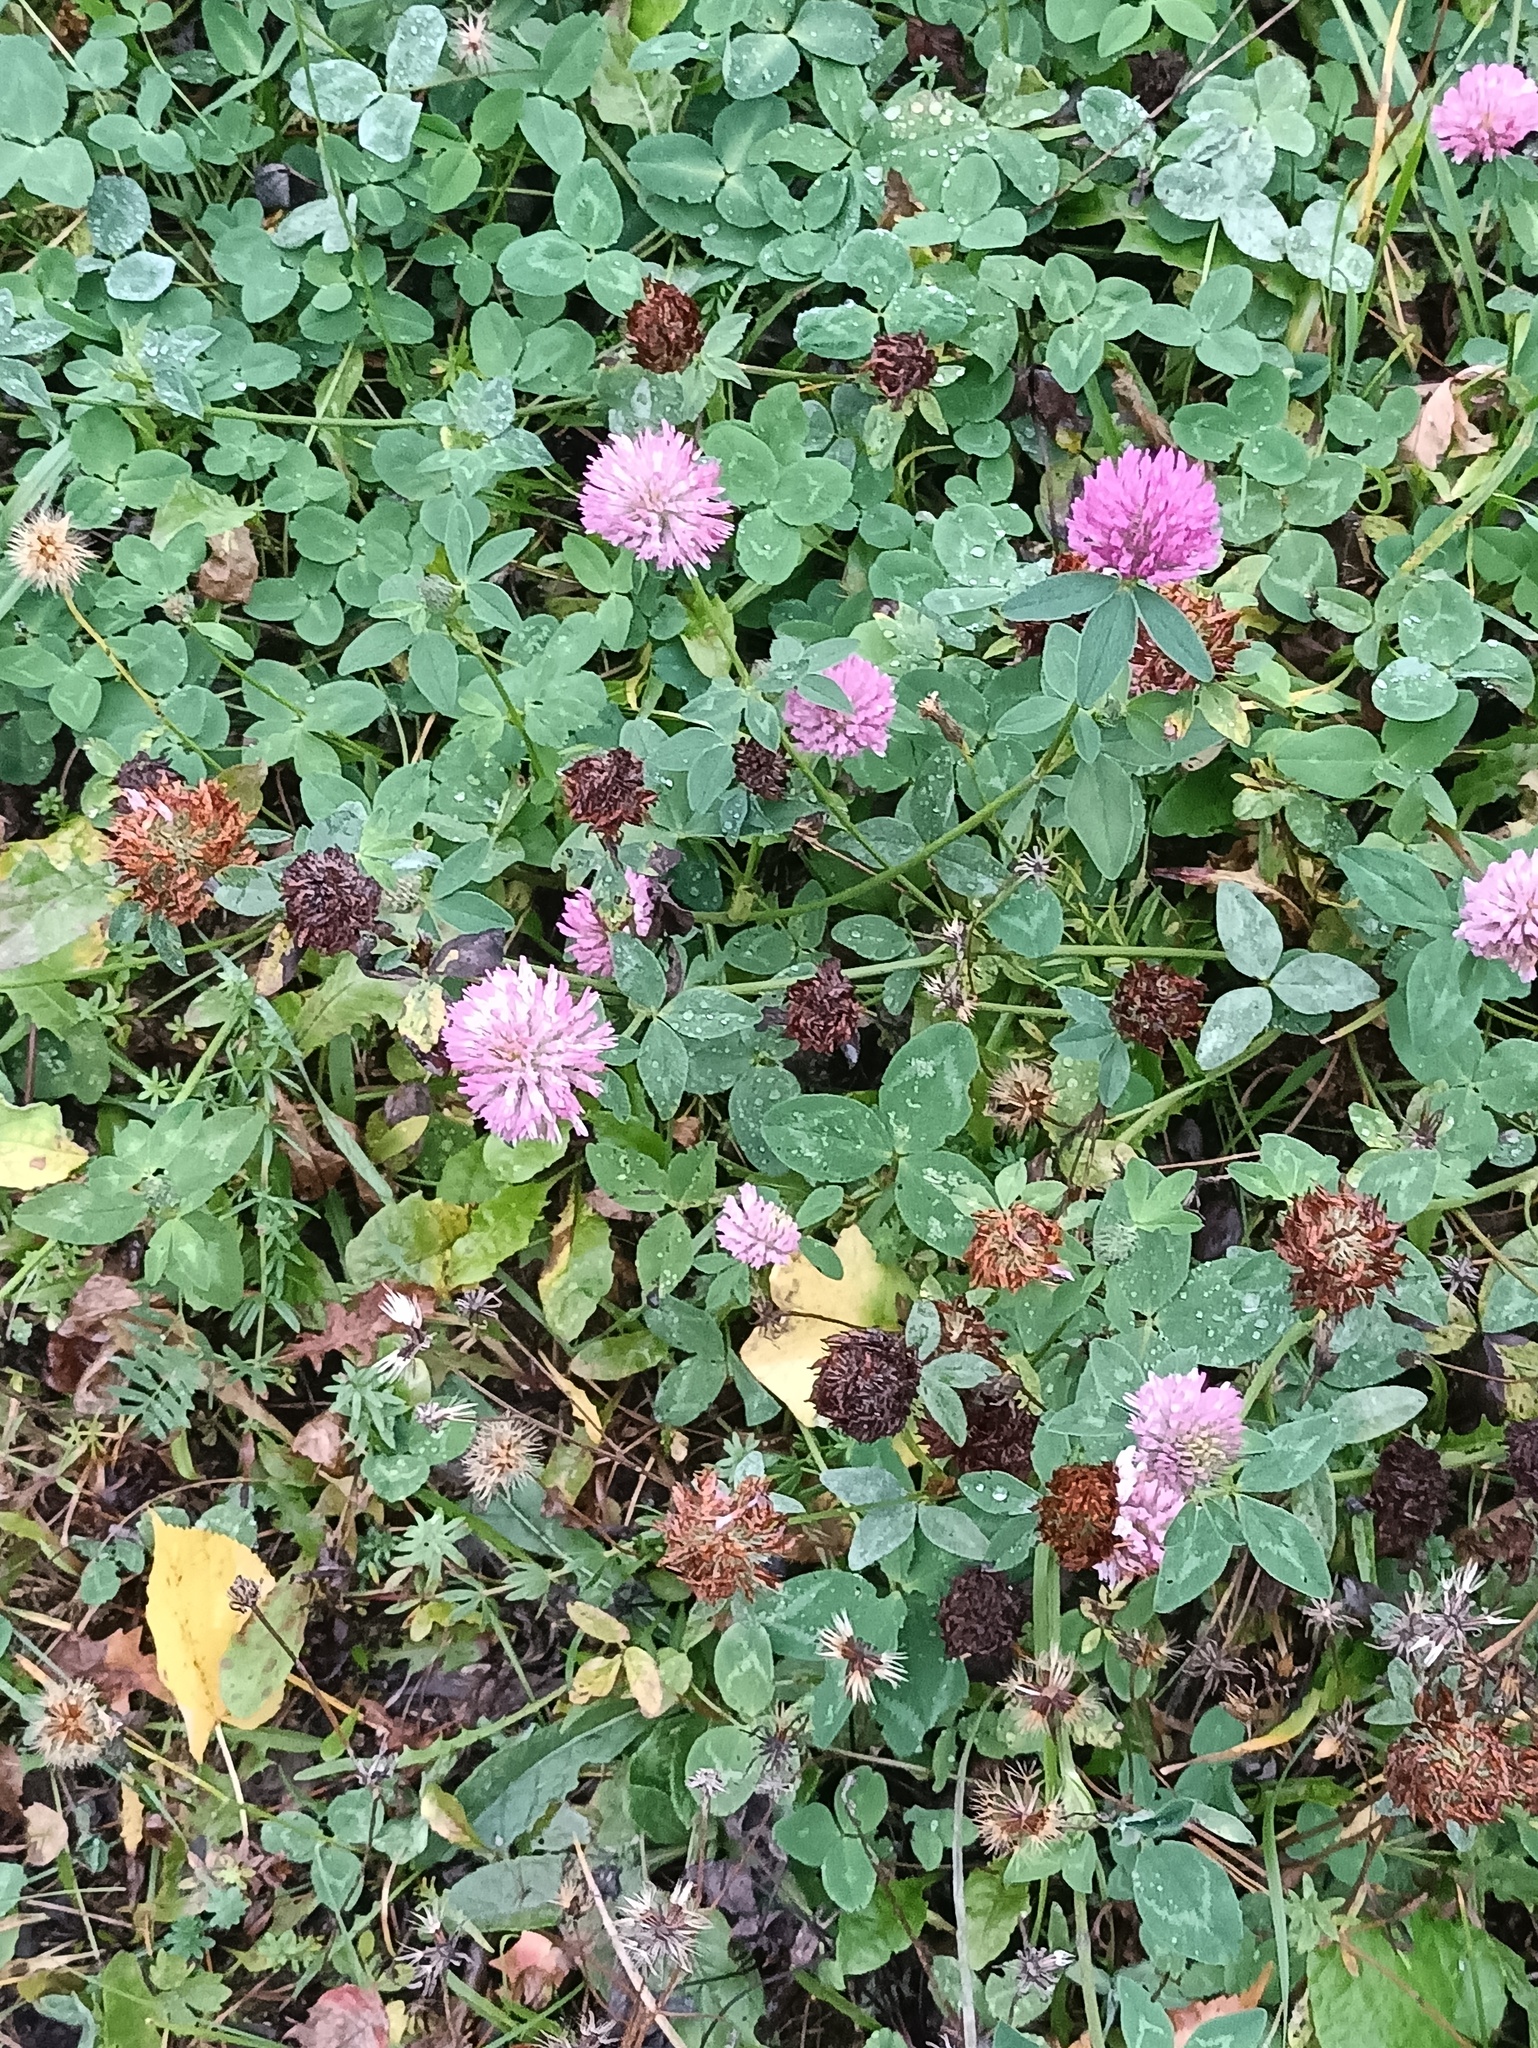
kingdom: Plantae
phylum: Tracheophyta
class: Magnoliopsida
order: Fabales
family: Fabaceae
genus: Trifolium
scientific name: Trifolium pratense
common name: Red clover
